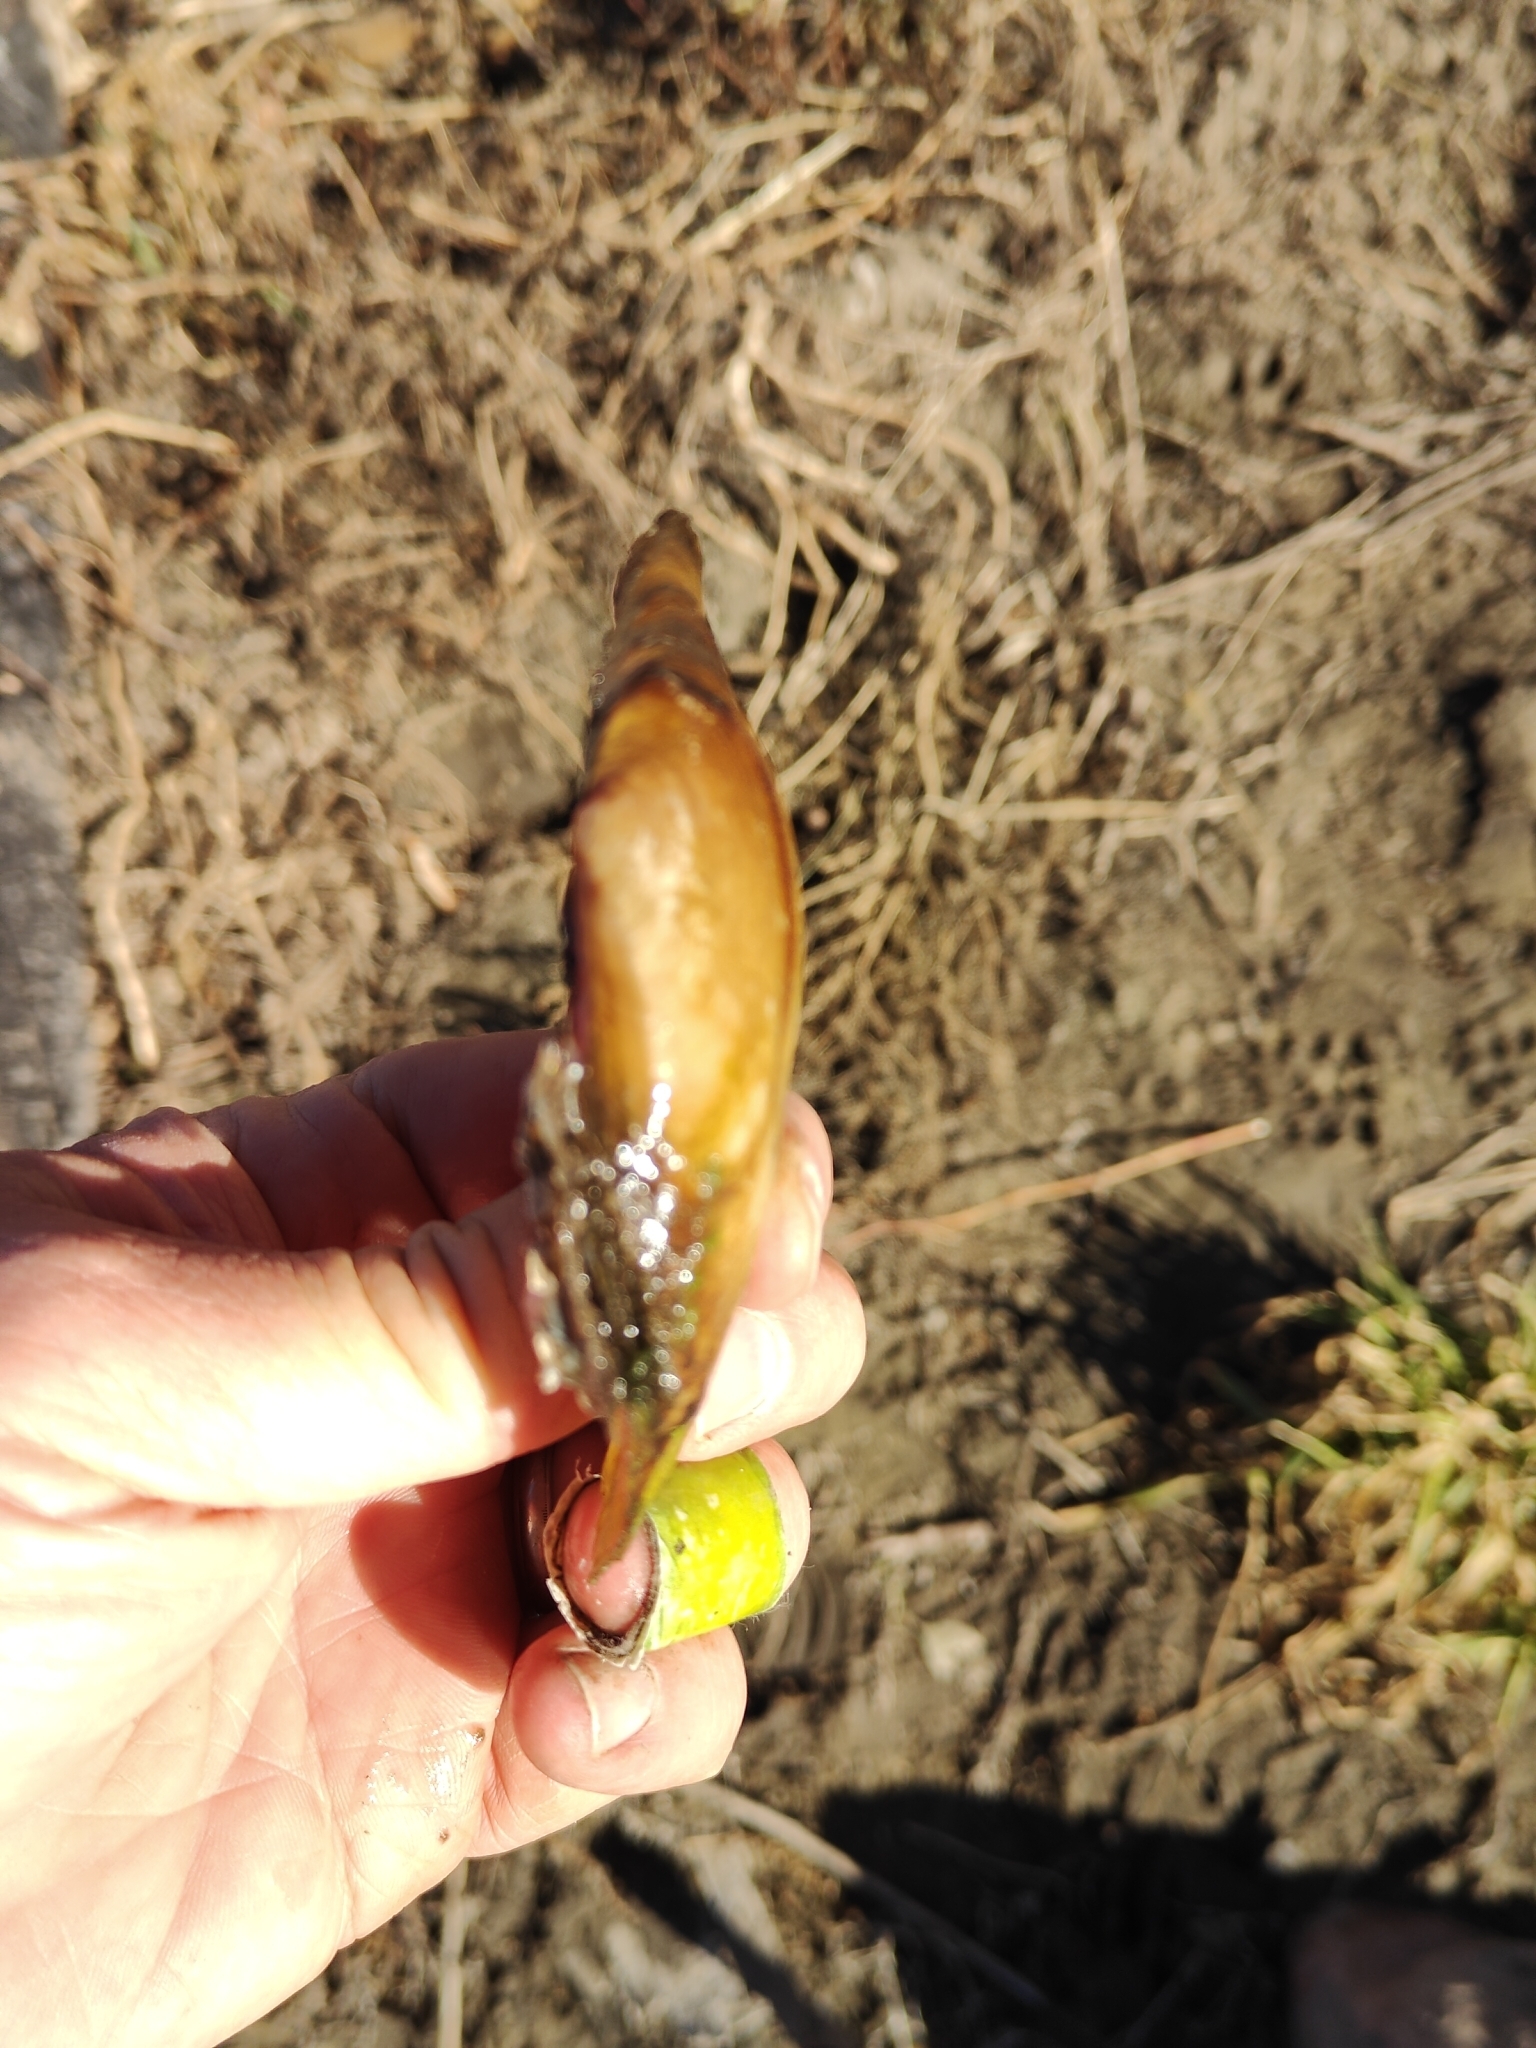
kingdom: Animalia
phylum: Mollusca
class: Bivalvia
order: Unionida
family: Unionidae
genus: Potamilus
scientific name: Potamilus fragilis
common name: Fragile papershell
